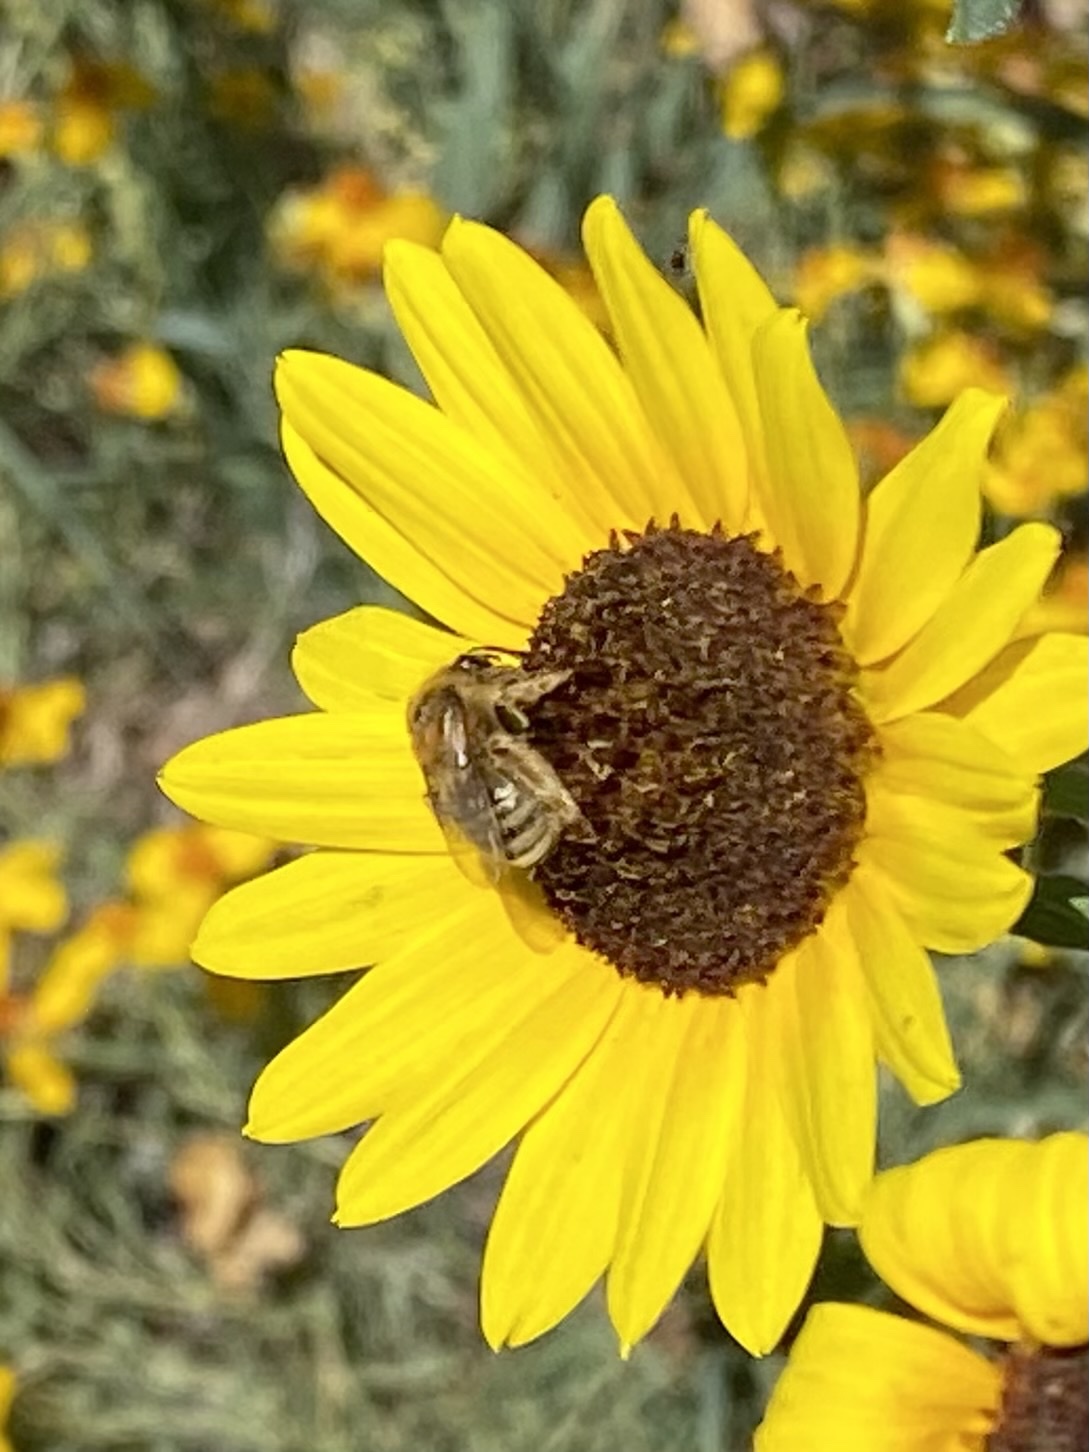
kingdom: Animalia
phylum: Arthropoda
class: Insecta
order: Hymenoptera
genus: Eumelissodes
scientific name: Eumelissodes
